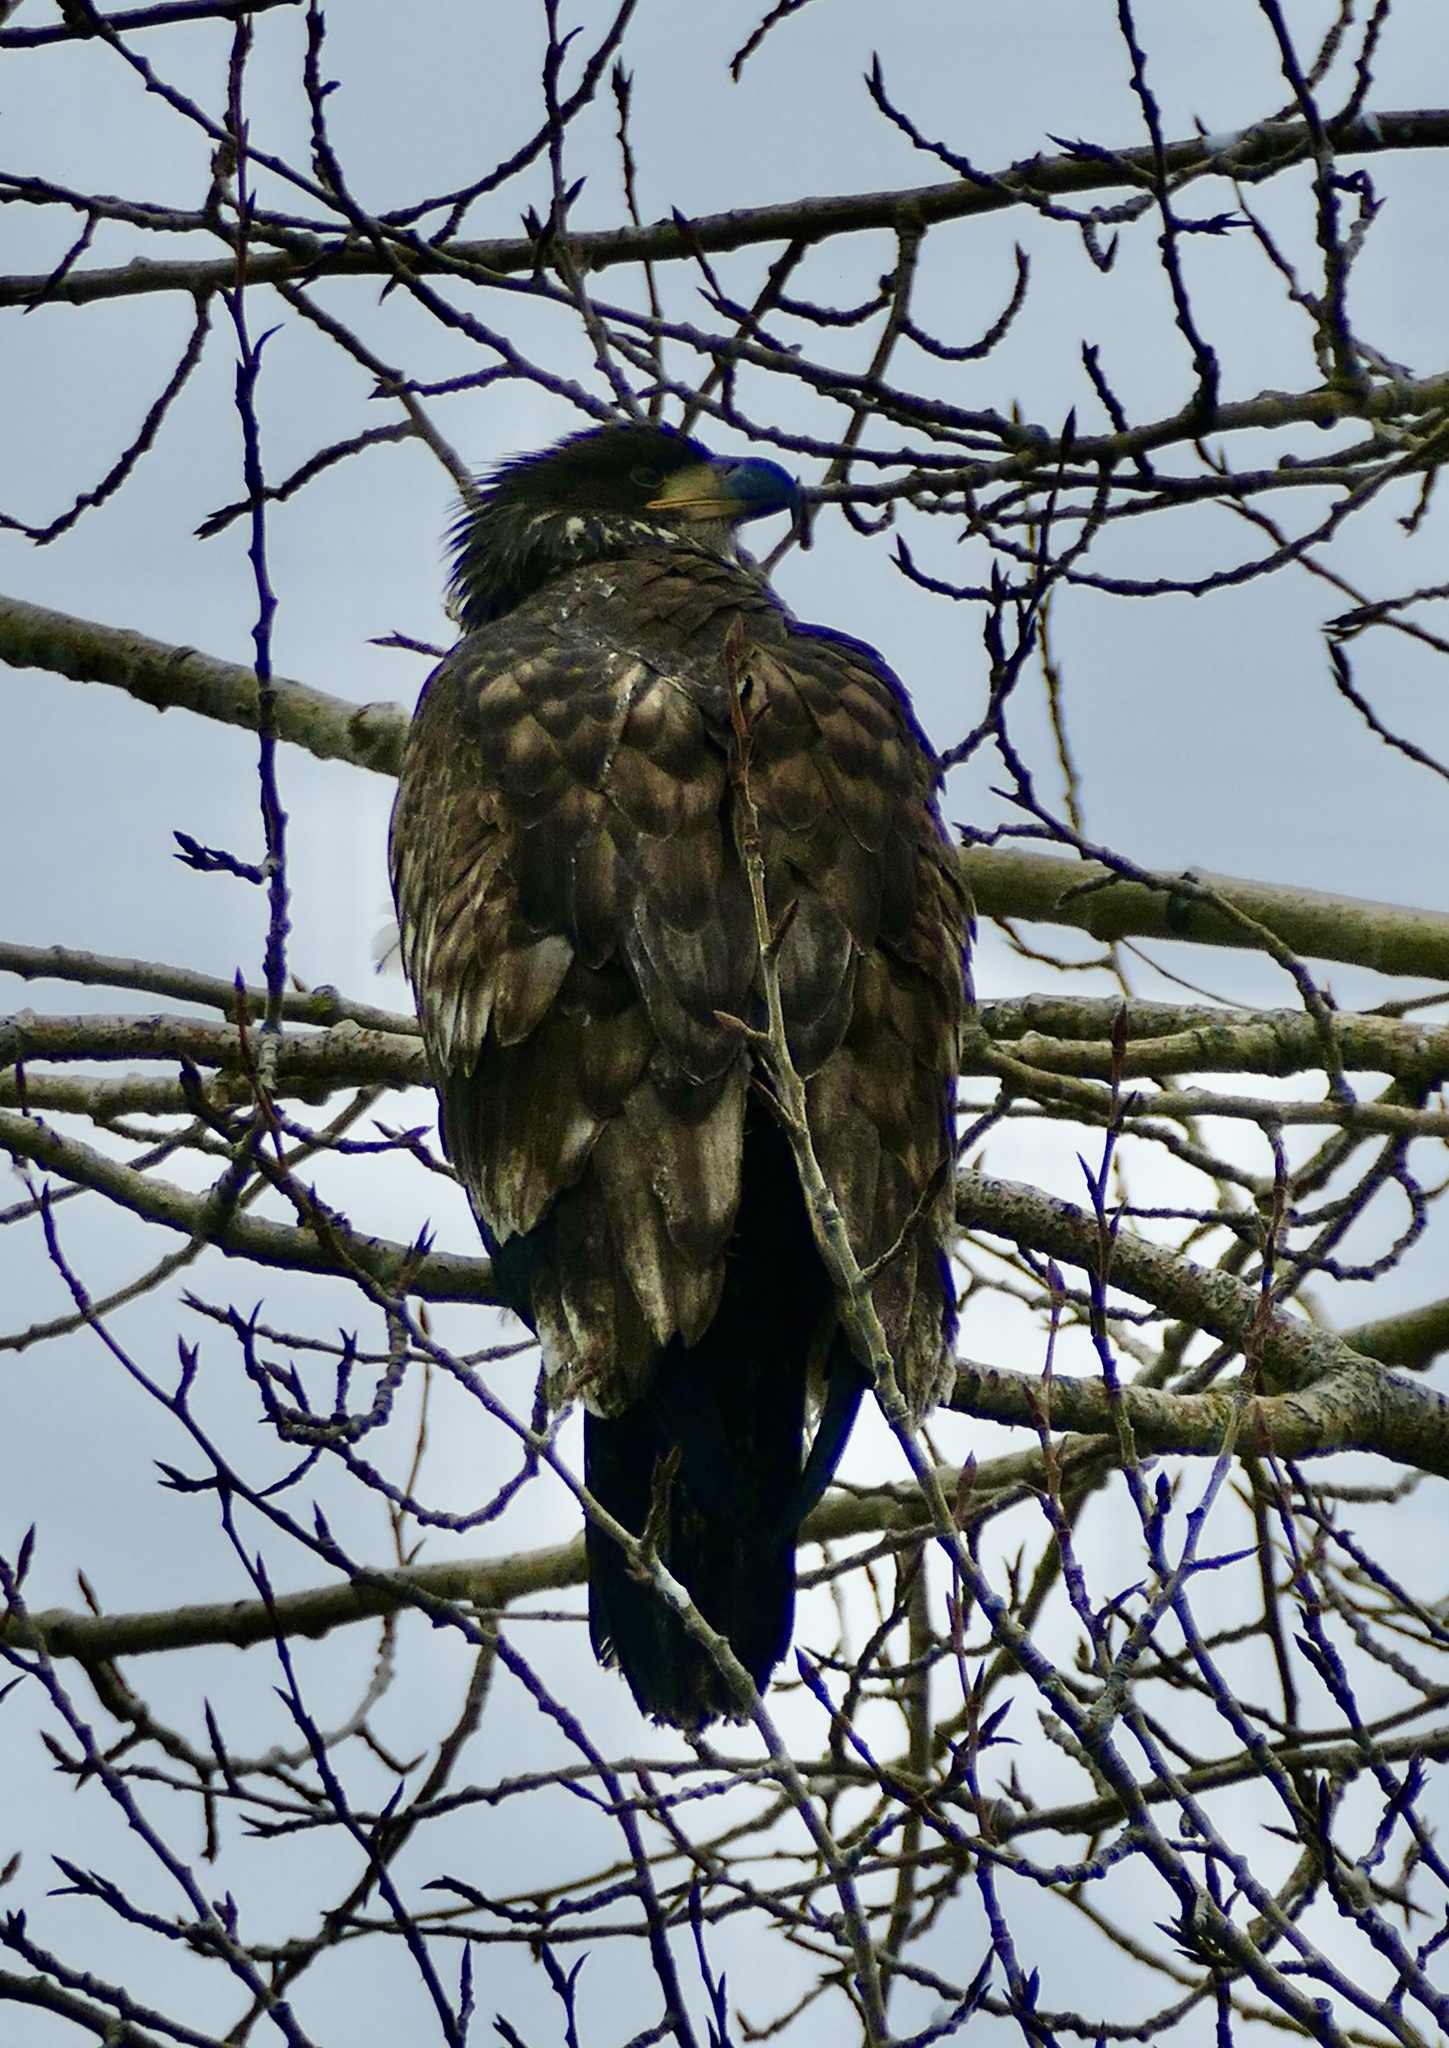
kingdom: Animalia
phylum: Chordata
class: Aves
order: Accipitriformes
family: Accipitridae
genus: Haliaeetus
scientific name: Haliaeetus leucocephalus
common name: Bald eagle
